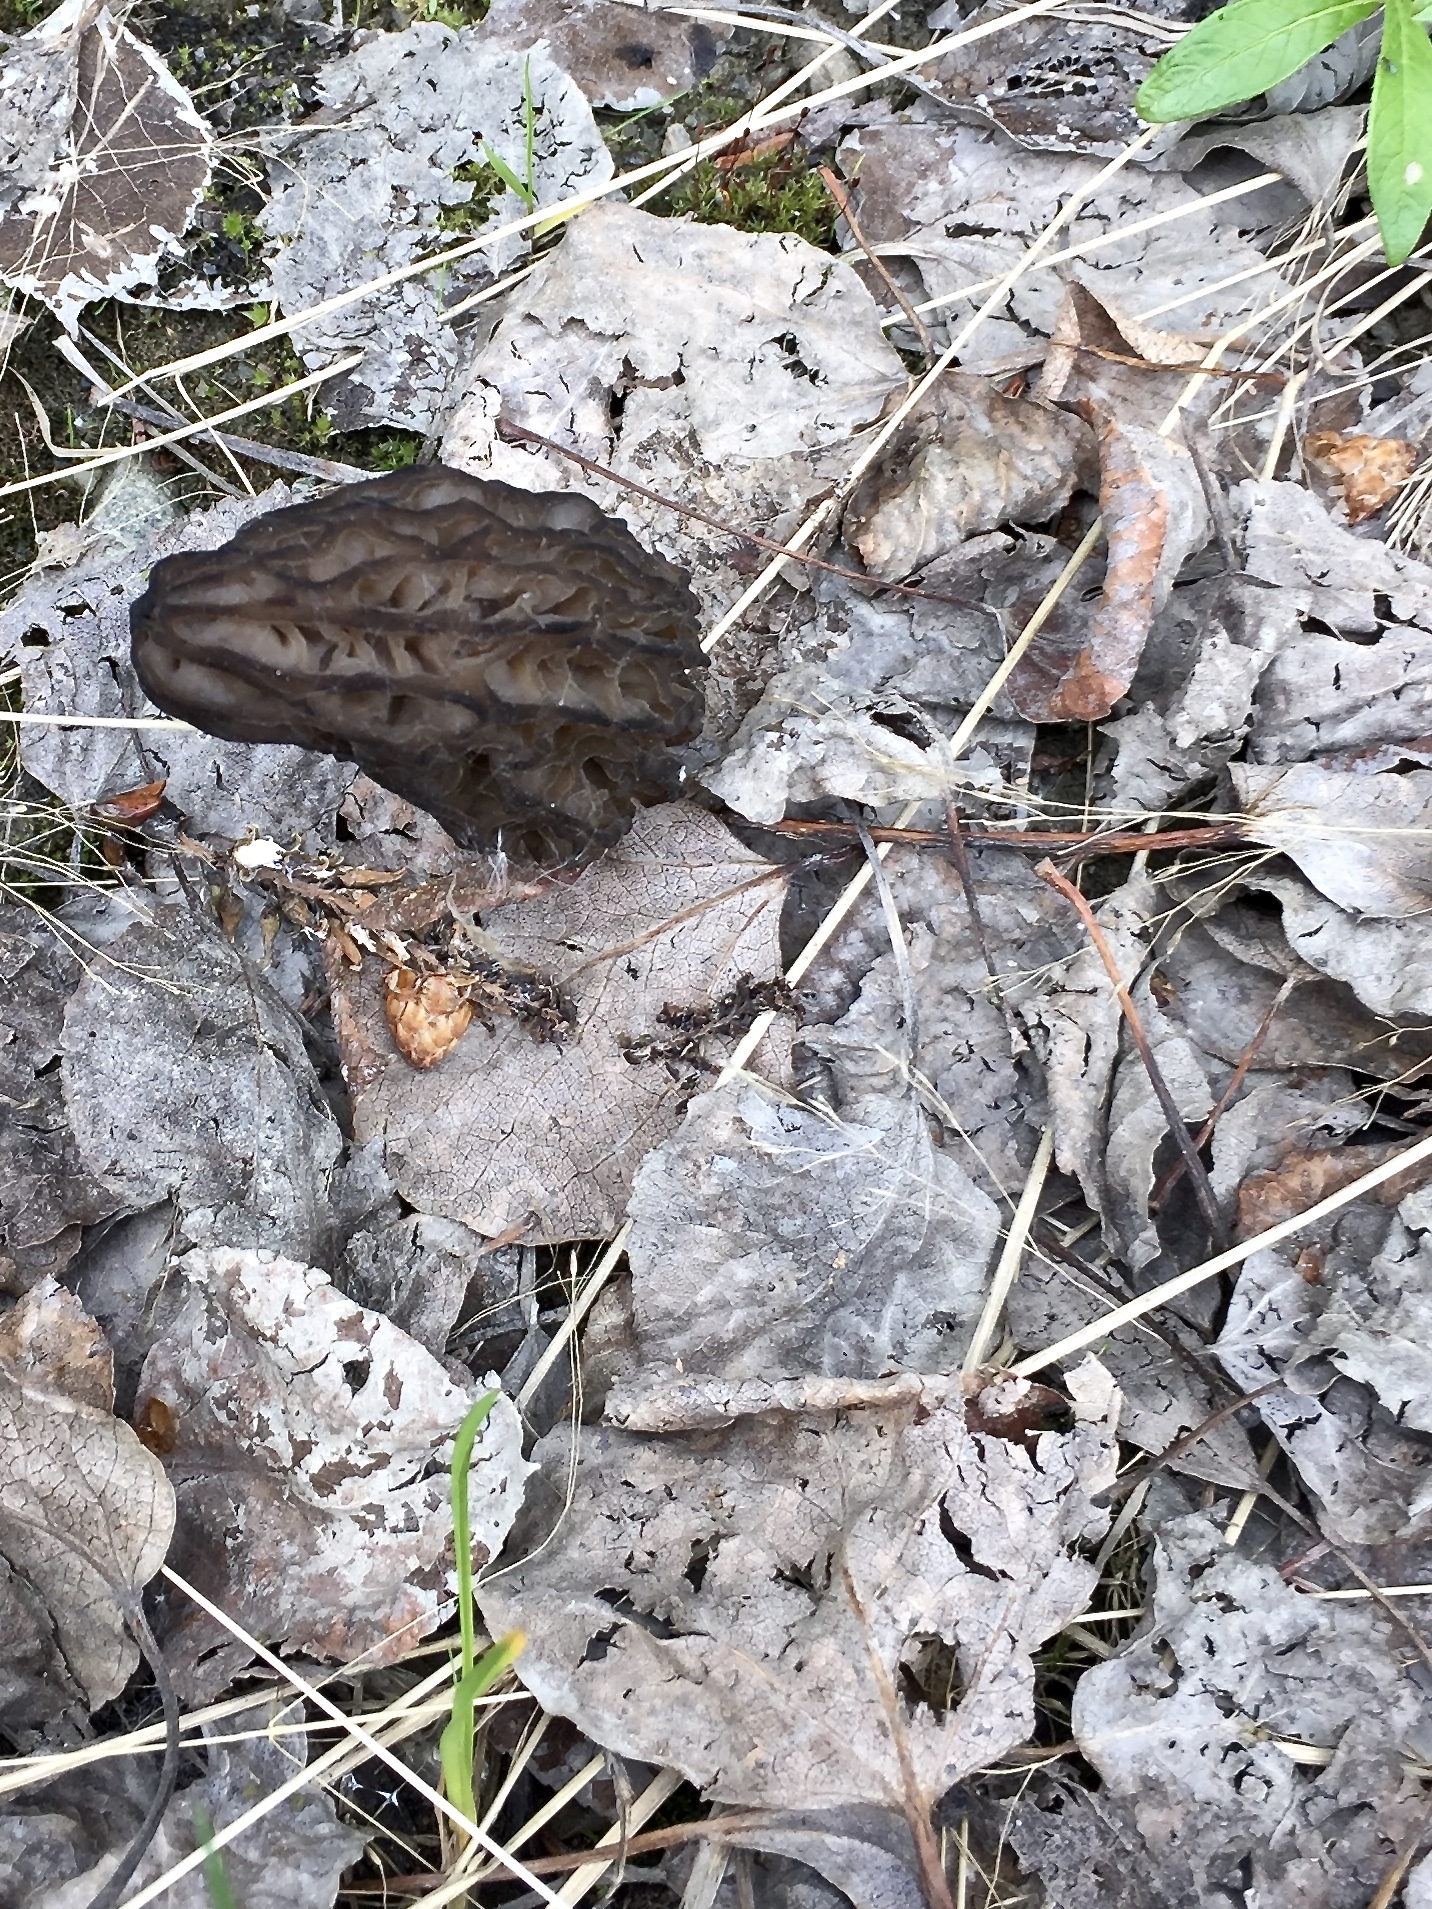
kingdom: Fungi
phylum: Ascomycota
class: Pezizomycetes
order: Pezizales
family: Morchellaceae
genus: Morchella
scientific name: Morchella angusticeps
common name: Black morel
